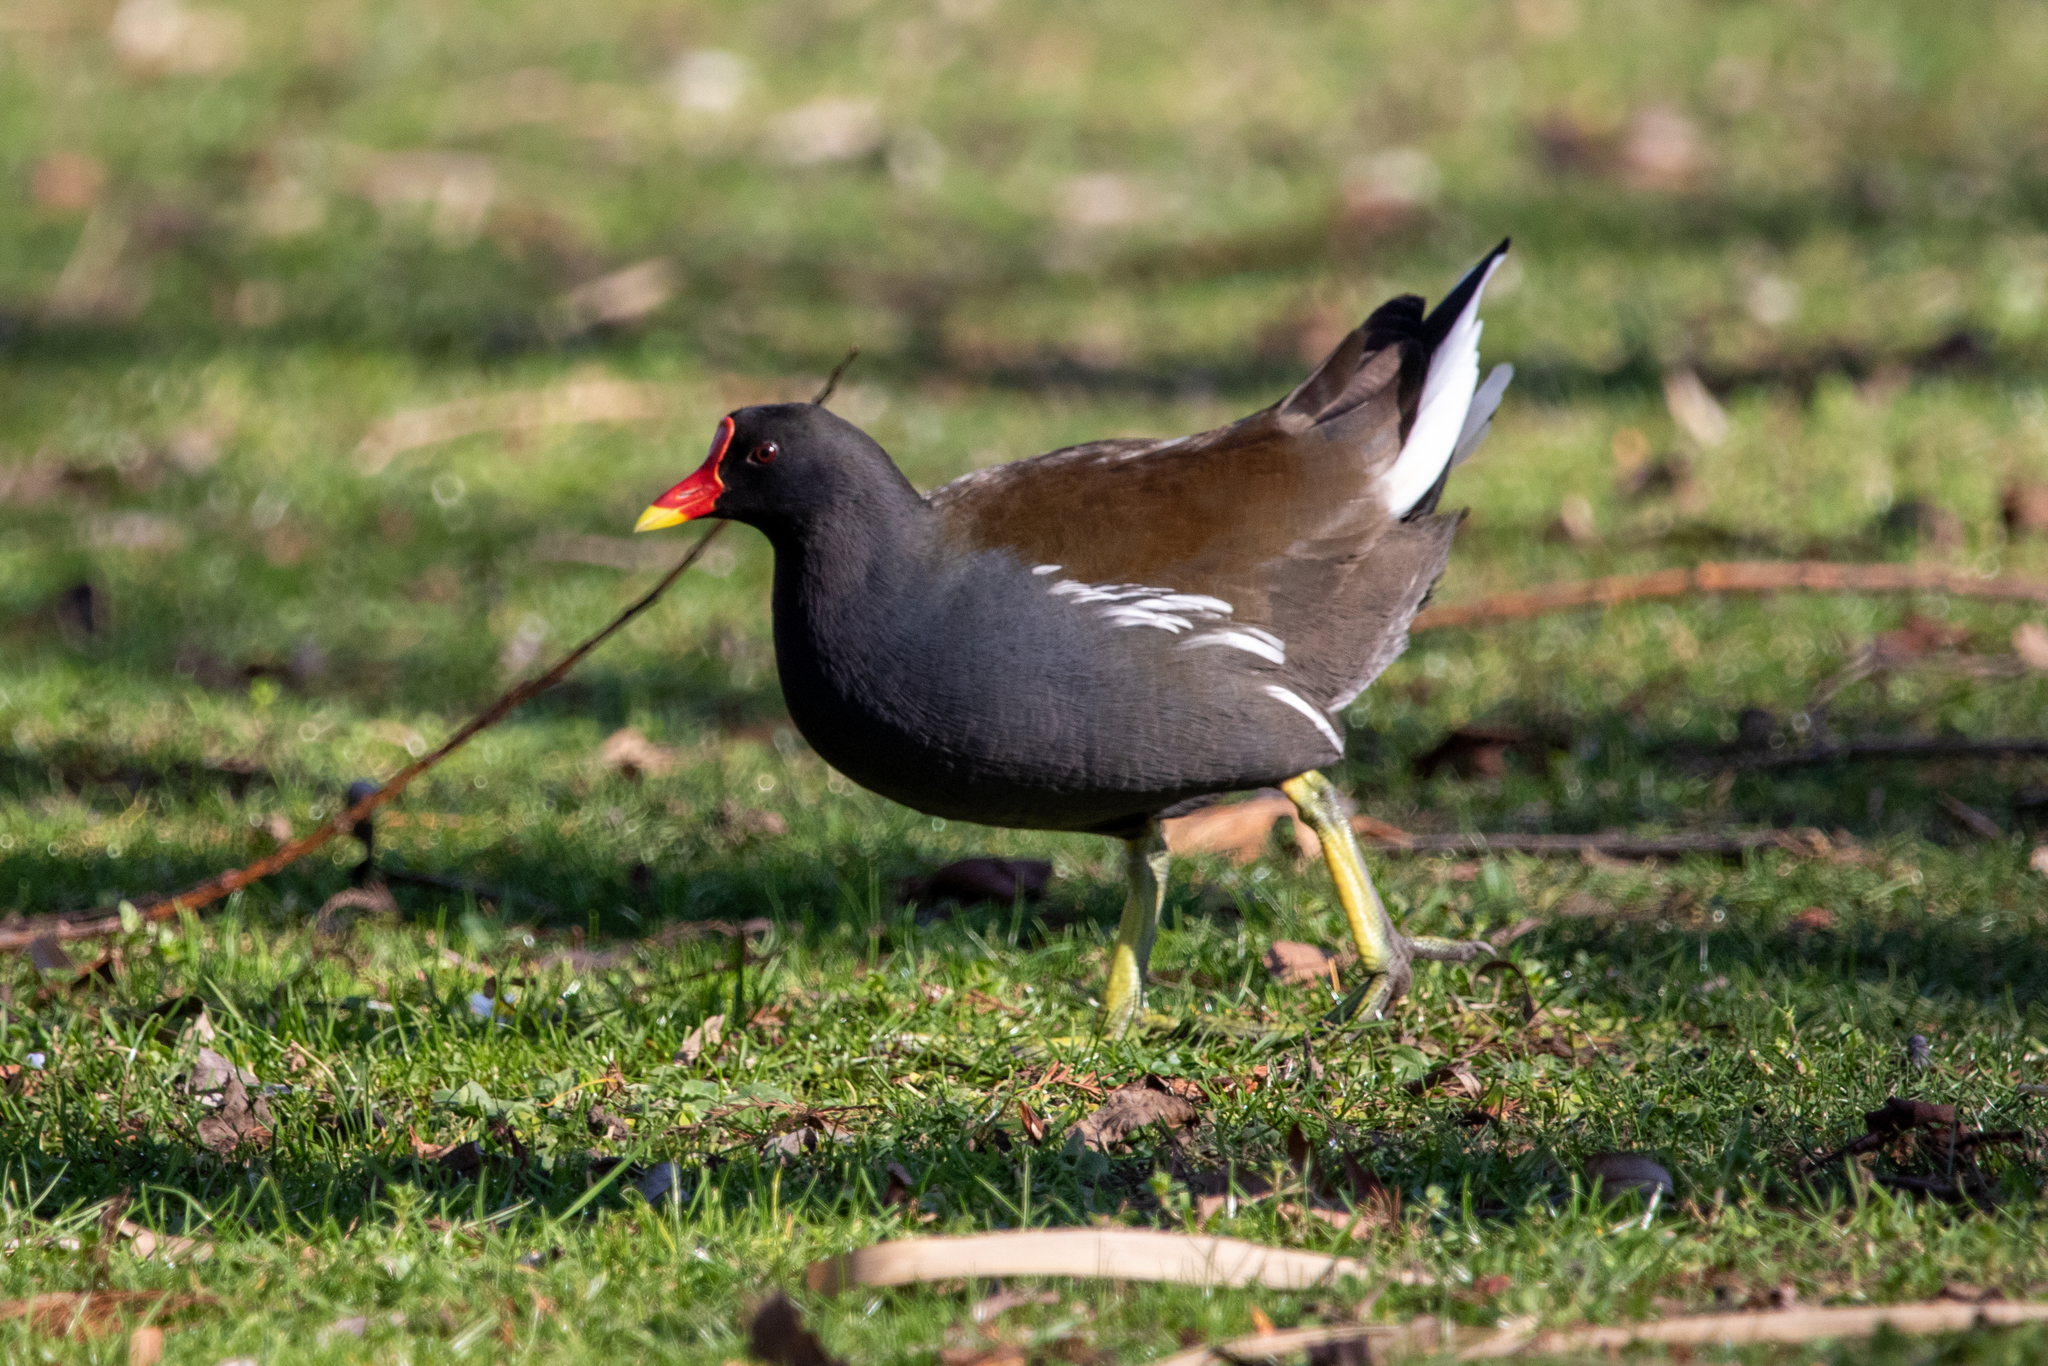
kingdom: Animalia
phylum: Chordata
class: Aves
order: Gruiformes
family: Rallidae
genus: Gallinula
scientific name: Gallinula chloropus
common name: Common moorhen
